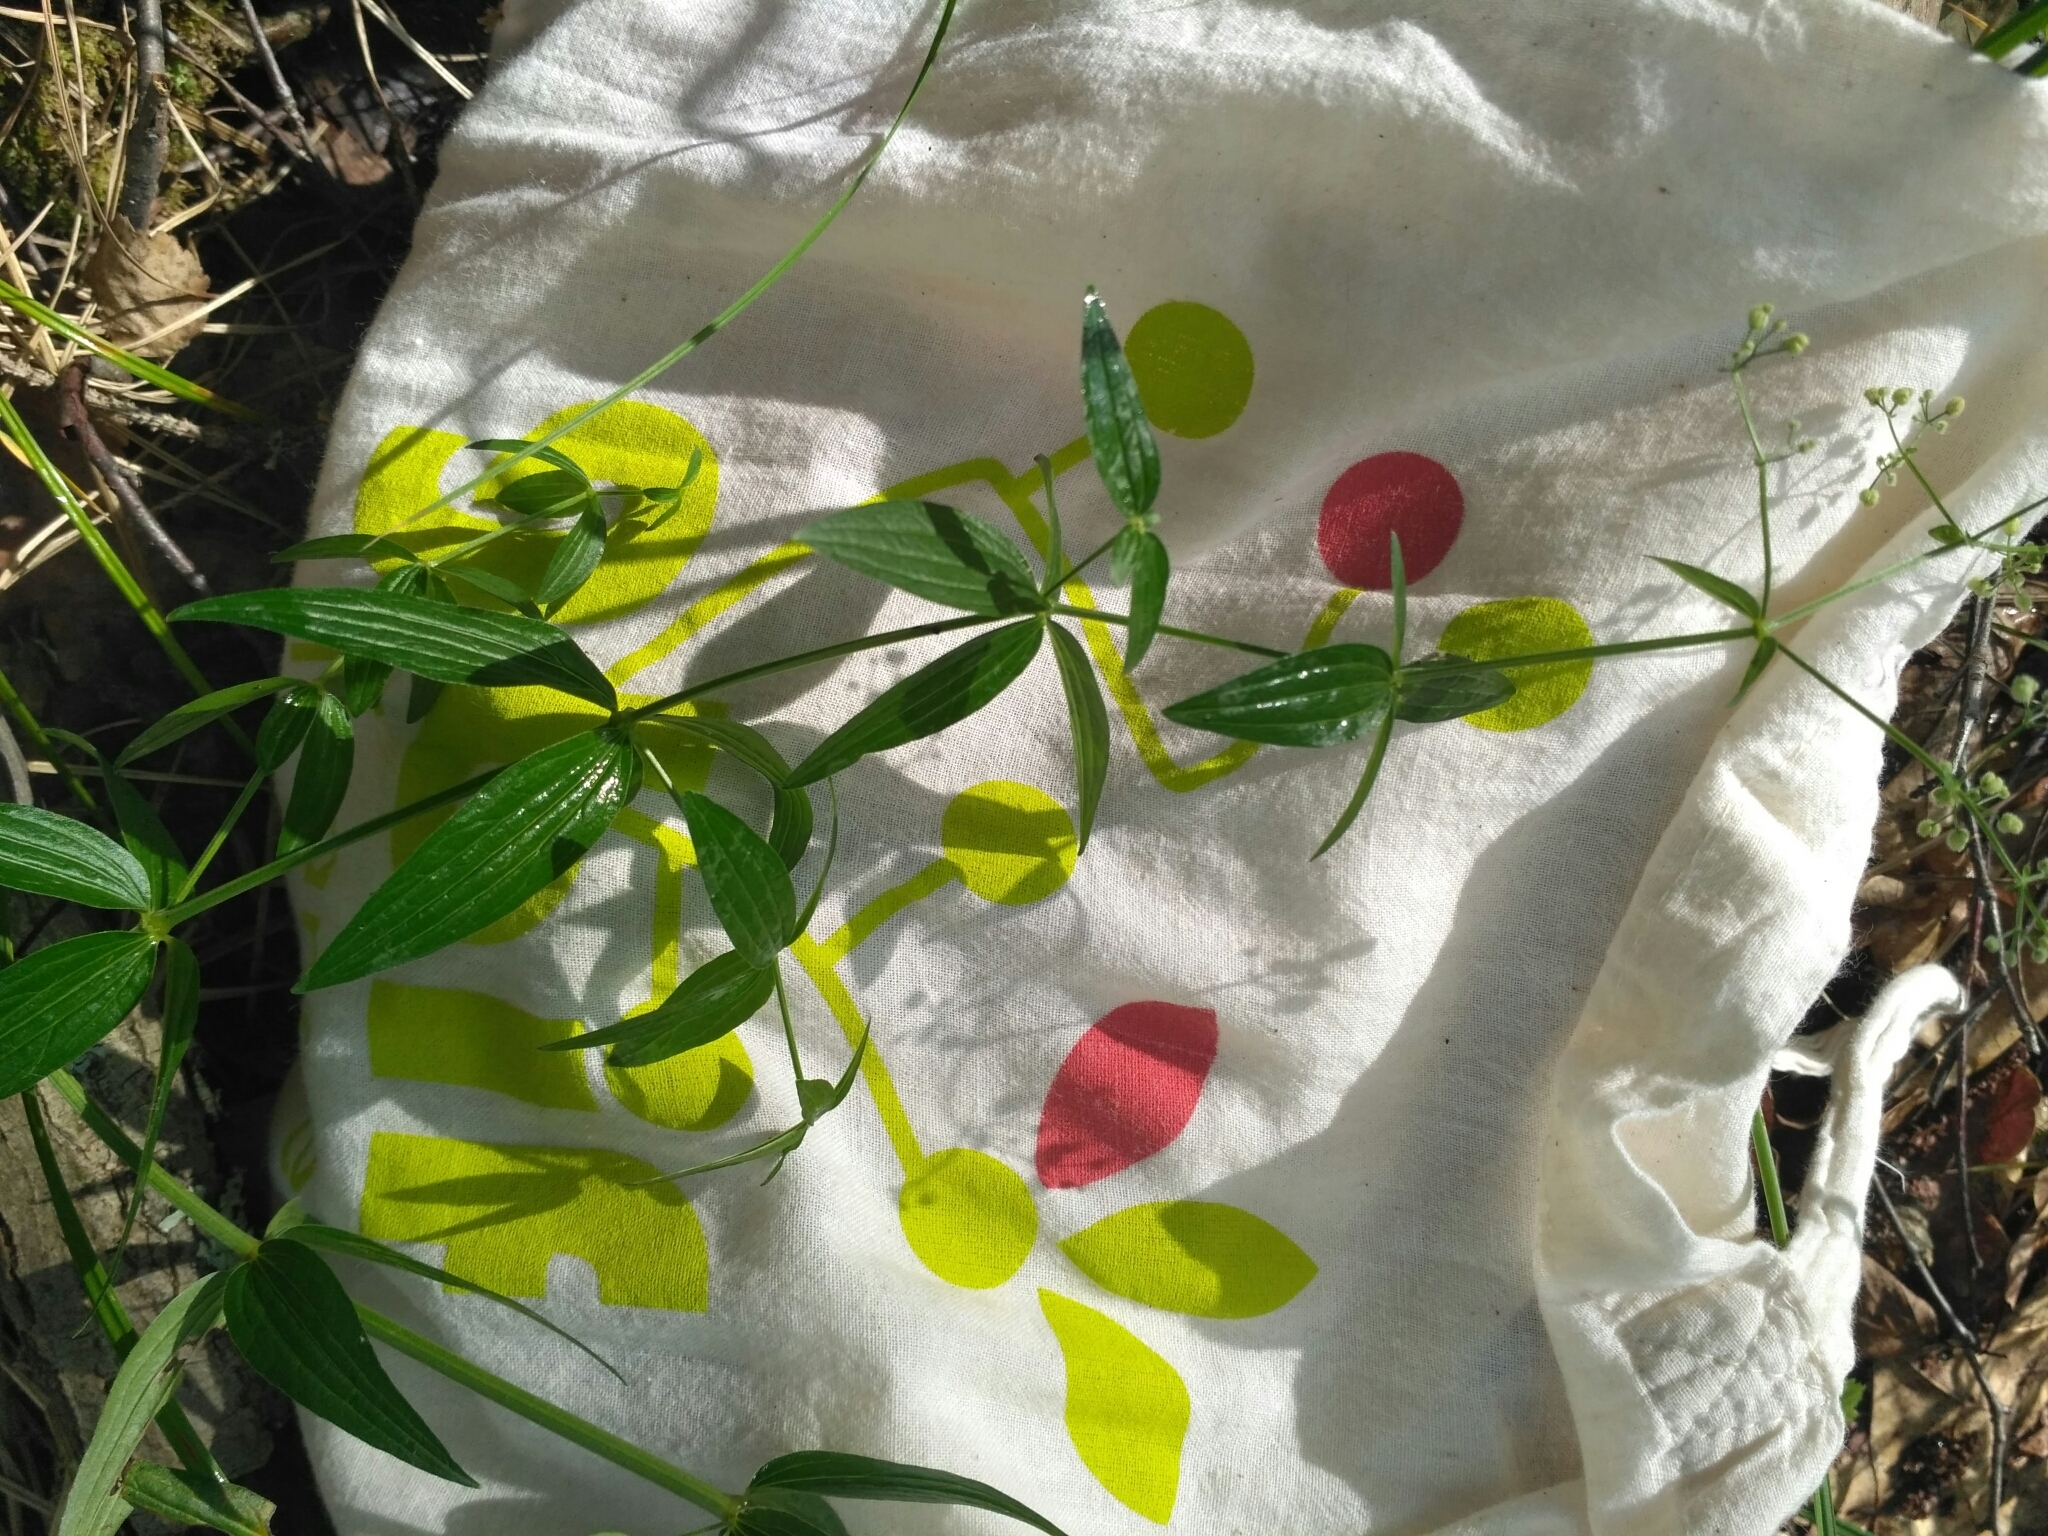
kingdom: Plantae
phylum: Tracheophyta
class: Magnoliopsida
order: Gentianales
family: Rubiaceae
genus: Galium
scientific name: Galium boreale
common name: Northern bedstraw
